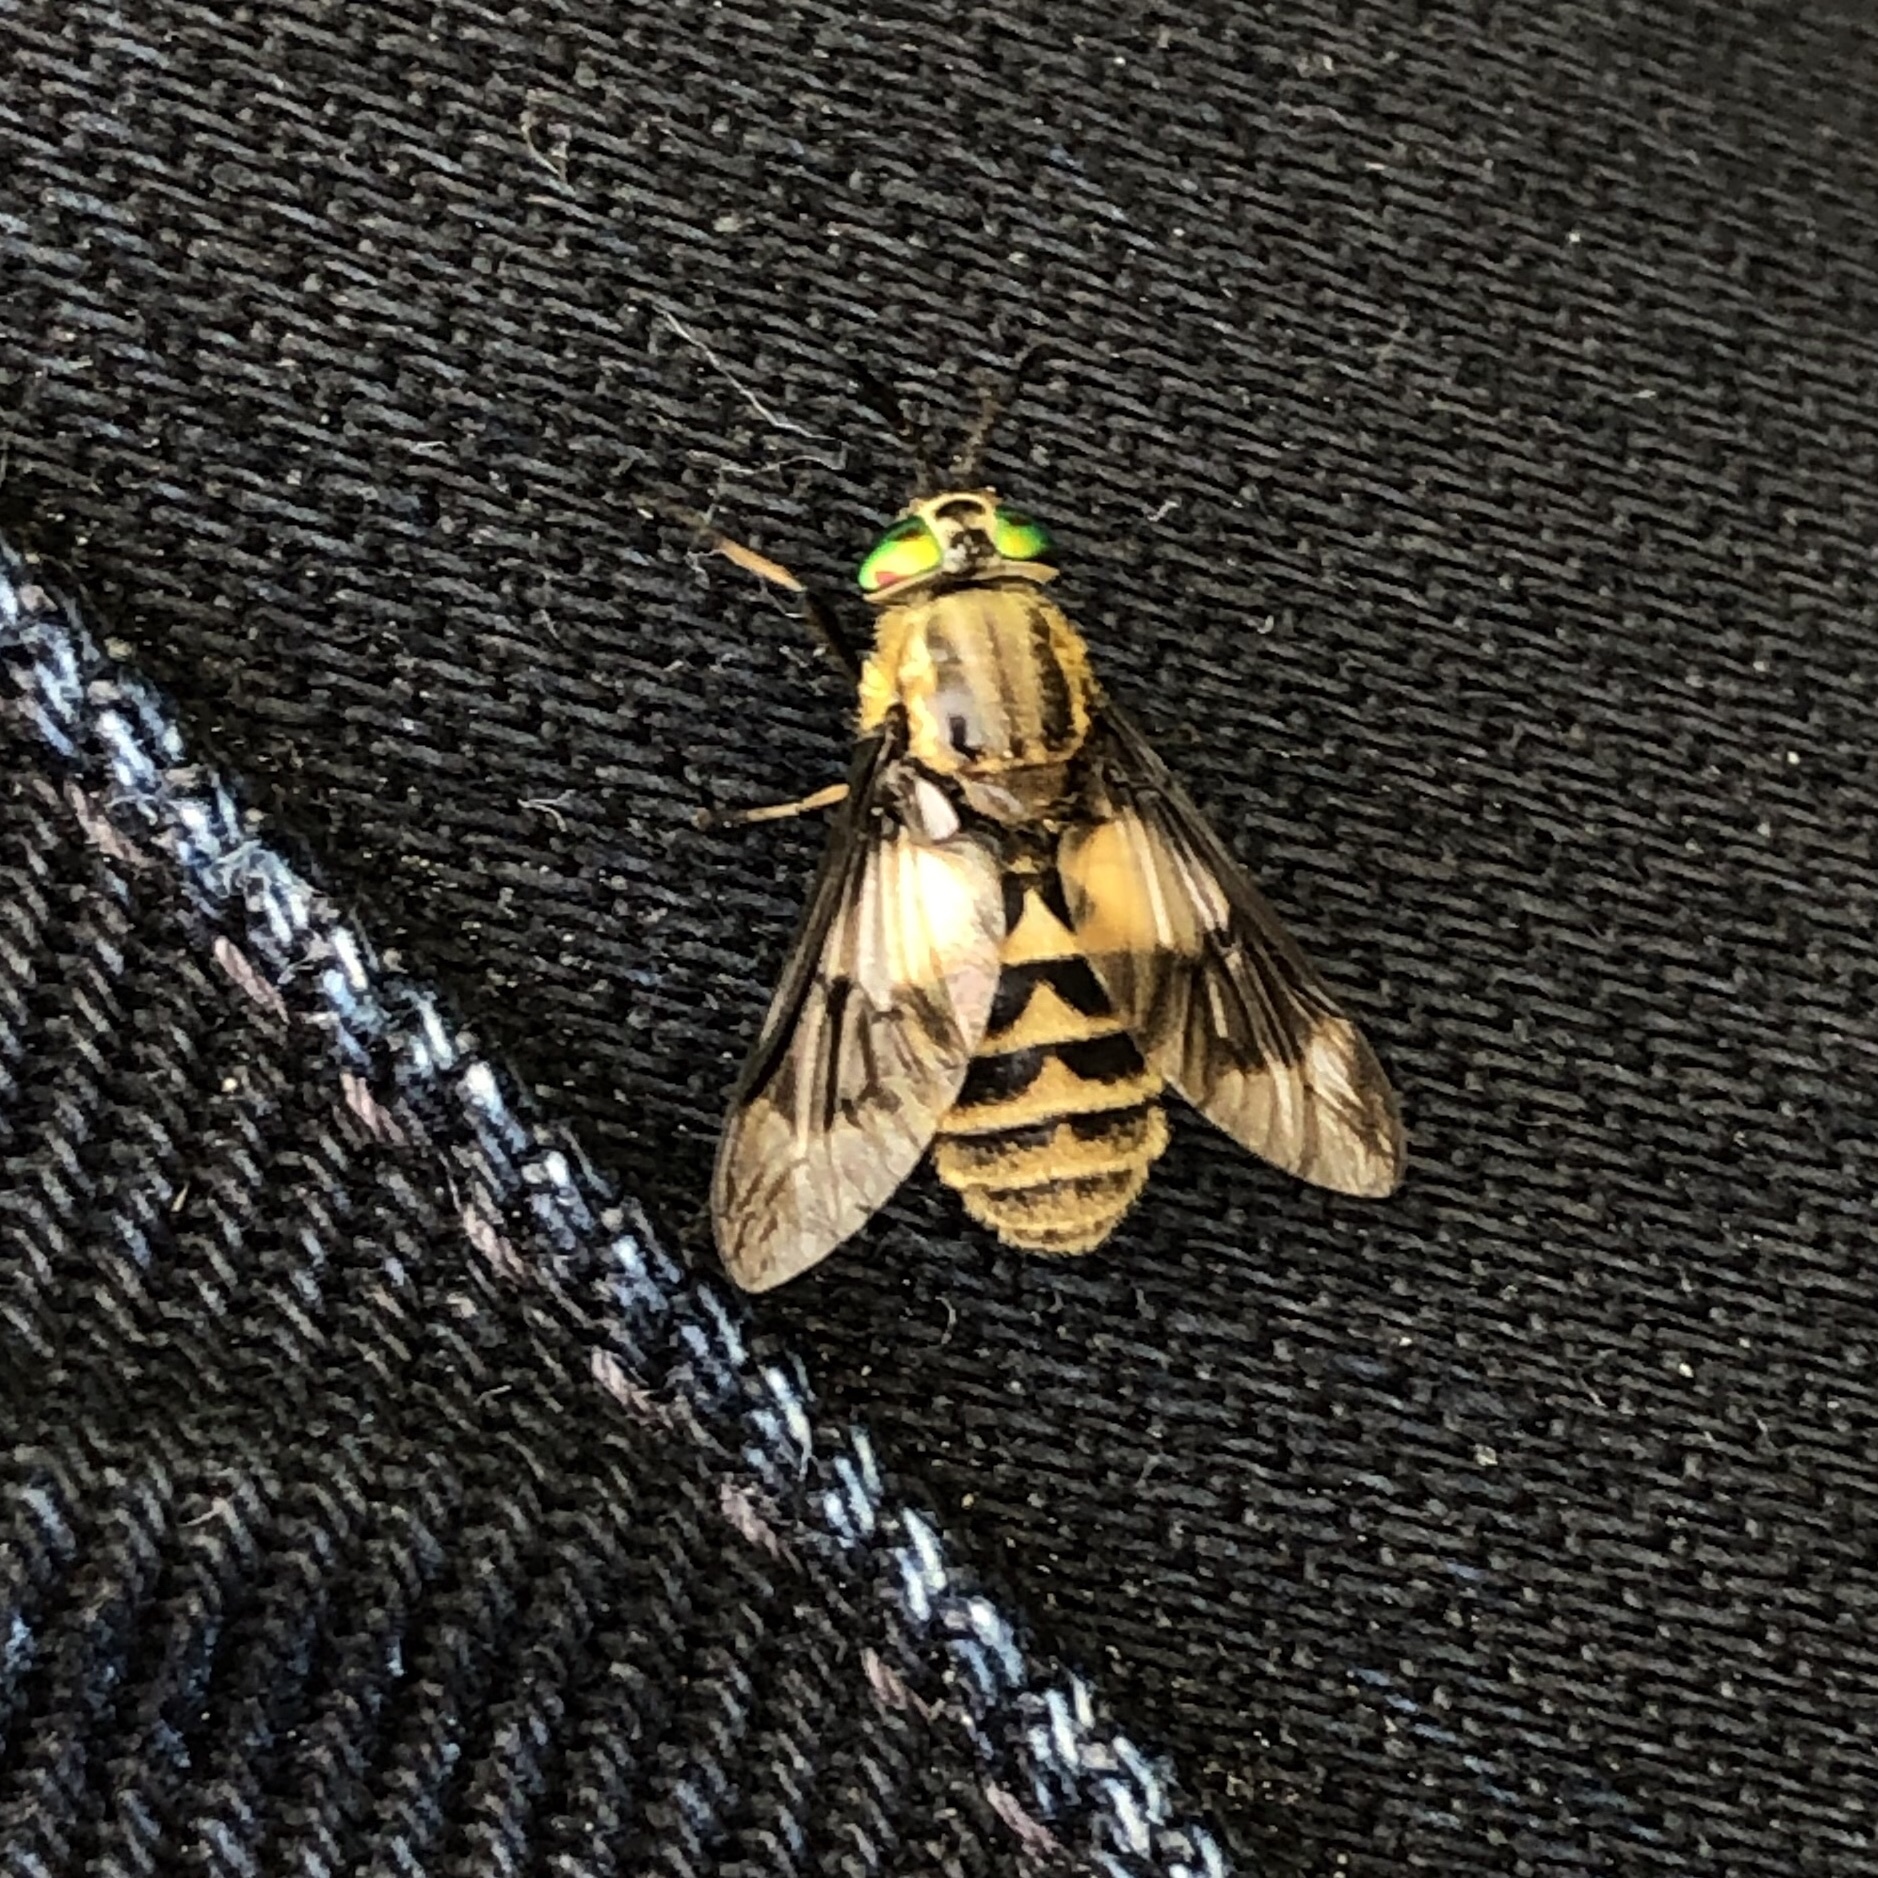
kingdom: Animalia
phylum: Arthropoda
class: Insecta
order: Diptera
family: Tabanidae
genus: Chrysops
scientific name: Chrysops relictus
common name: Twin-lobed deerfly
